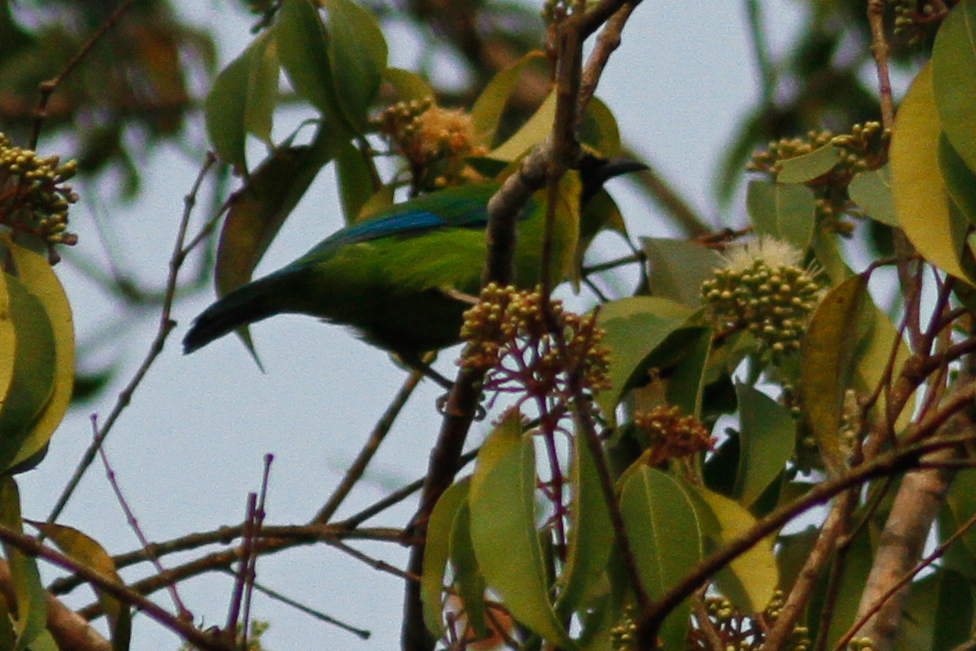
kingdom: Animalia
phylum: Chordata
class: Aves
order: Passeriformes
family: Chloropseidae
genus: Chloropsis
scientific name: Chloropsis moluccensis
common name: Blue-winged leafbird
